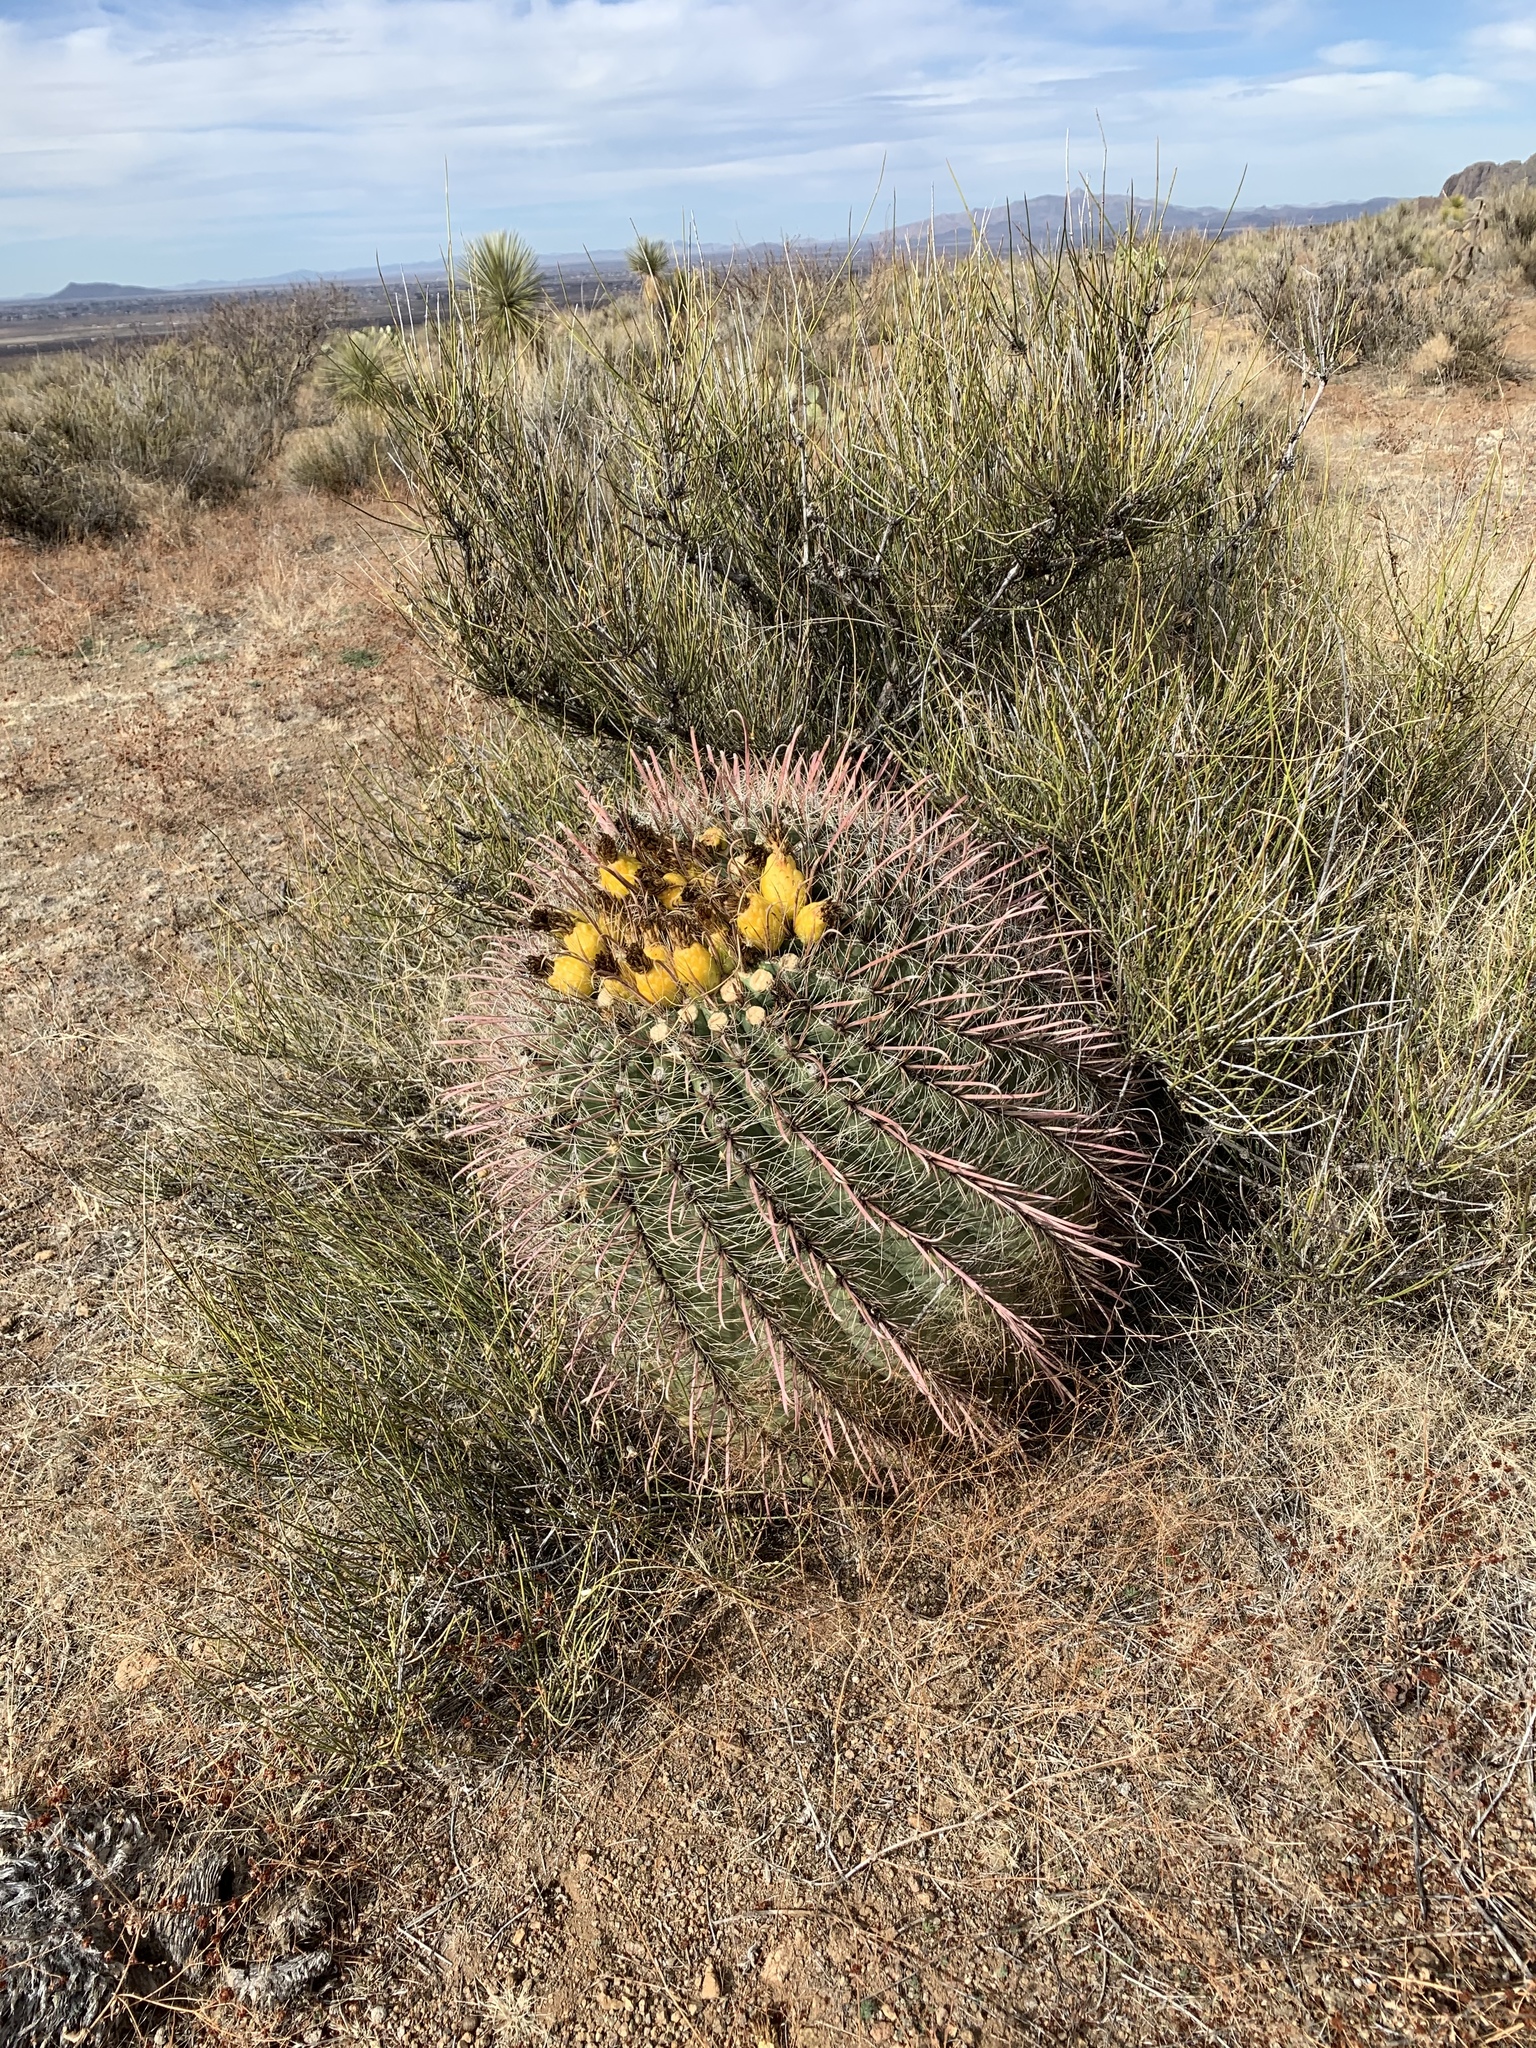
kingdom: Plantae
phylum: Tracheophyta
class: Magnoliopsida
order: Caryophyllales
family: Cactaceae
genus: Ferocactus
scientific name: Ferocactus wislizeni
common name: Candy barrel cactus
